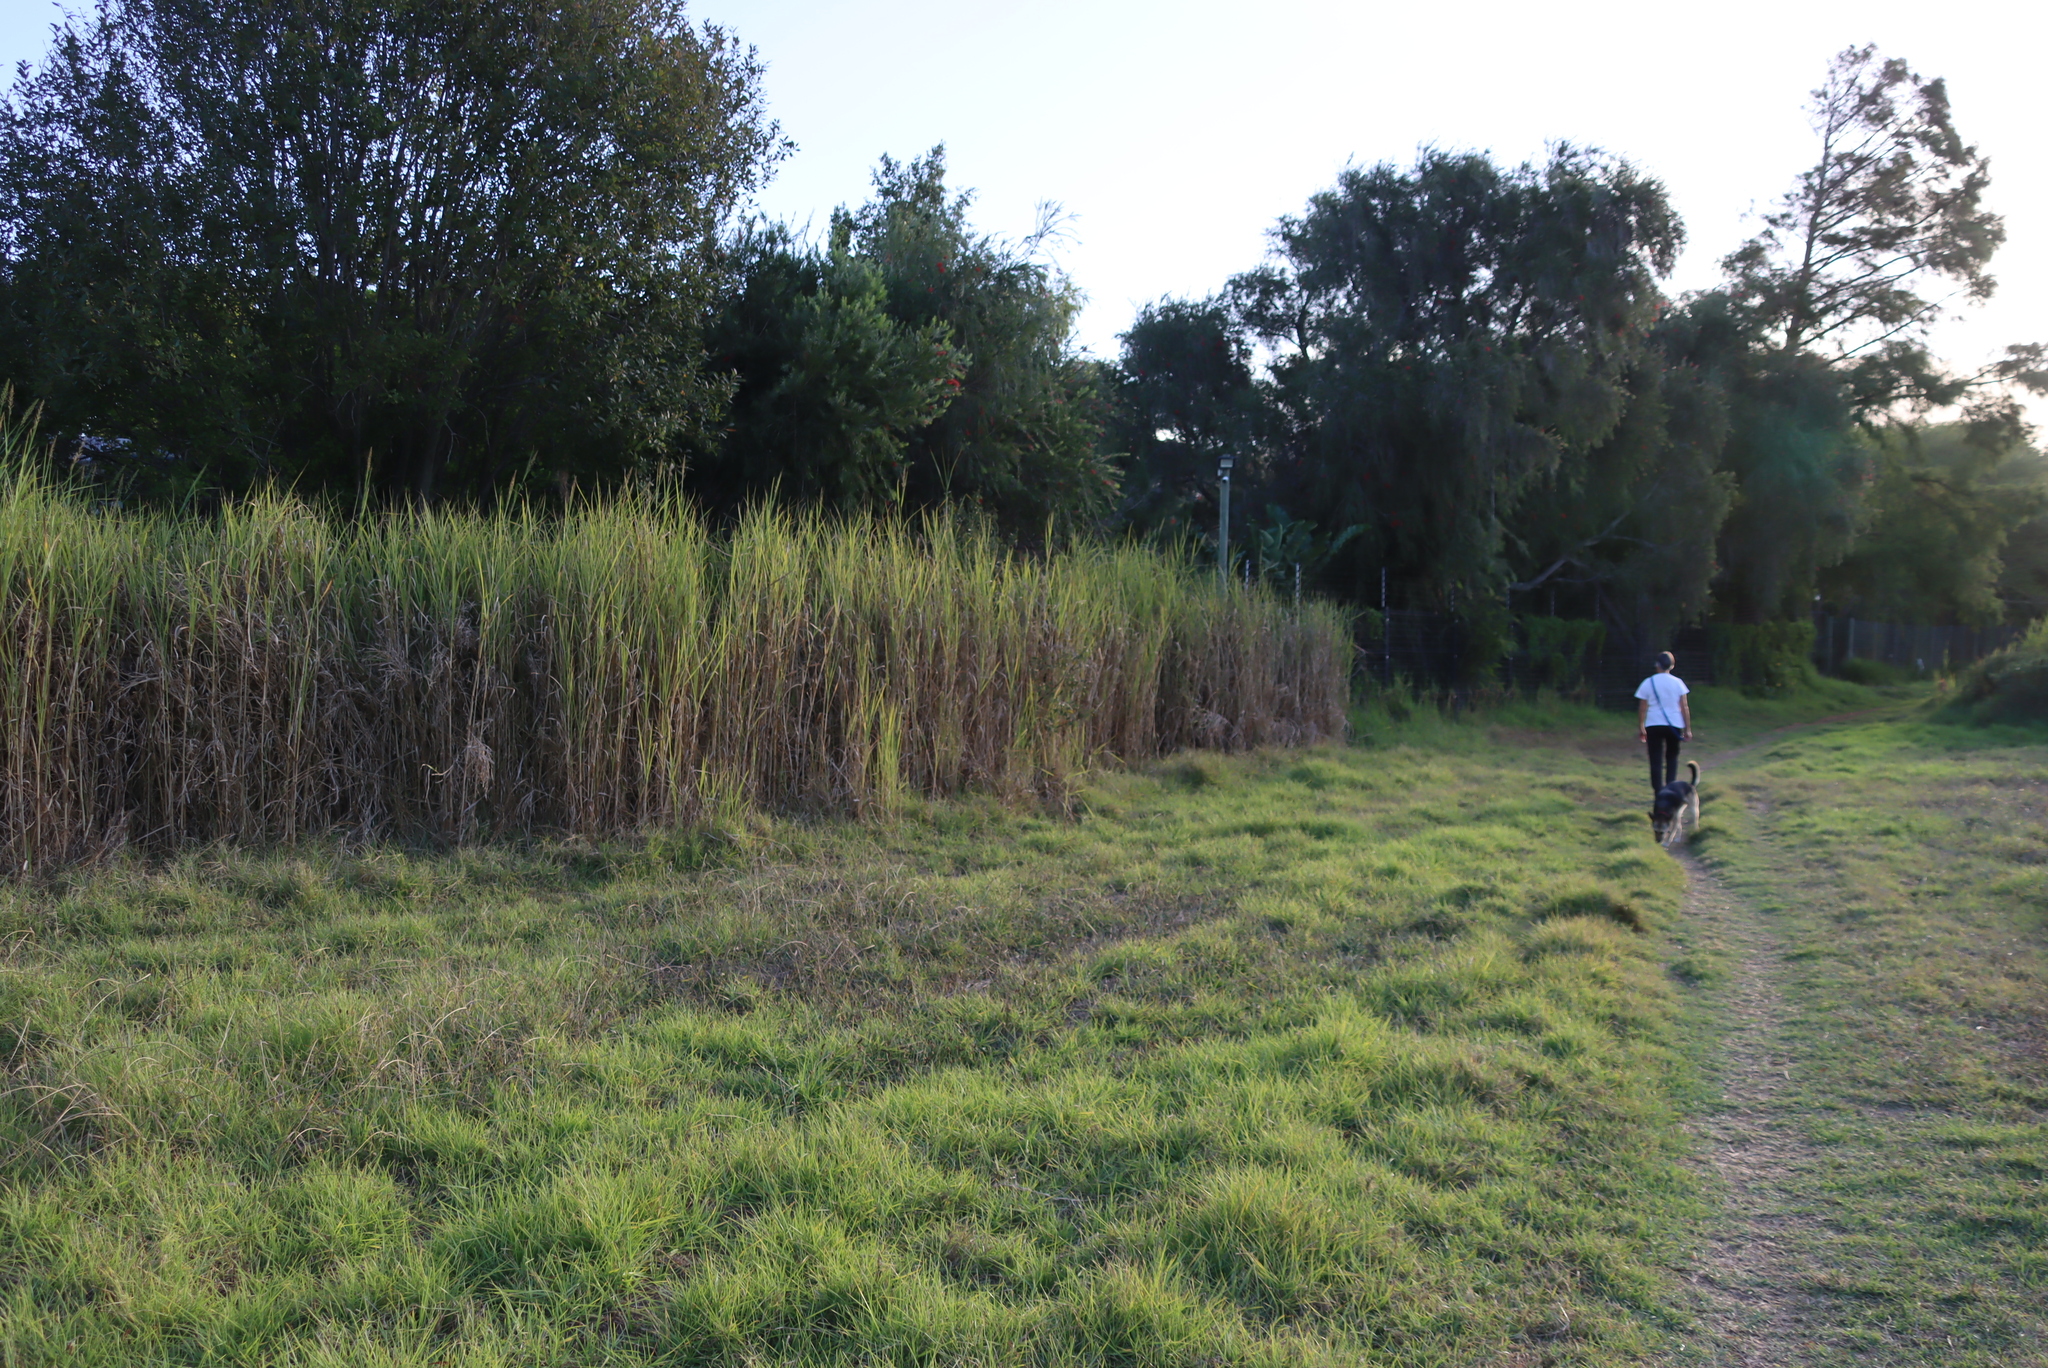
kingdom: Plantae
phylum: Tracheophyta
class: Liliopsida
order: Poales
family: Poaceae
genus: Echinochloa
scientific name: Echinochloa pyramidalis
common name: Antelope grass
